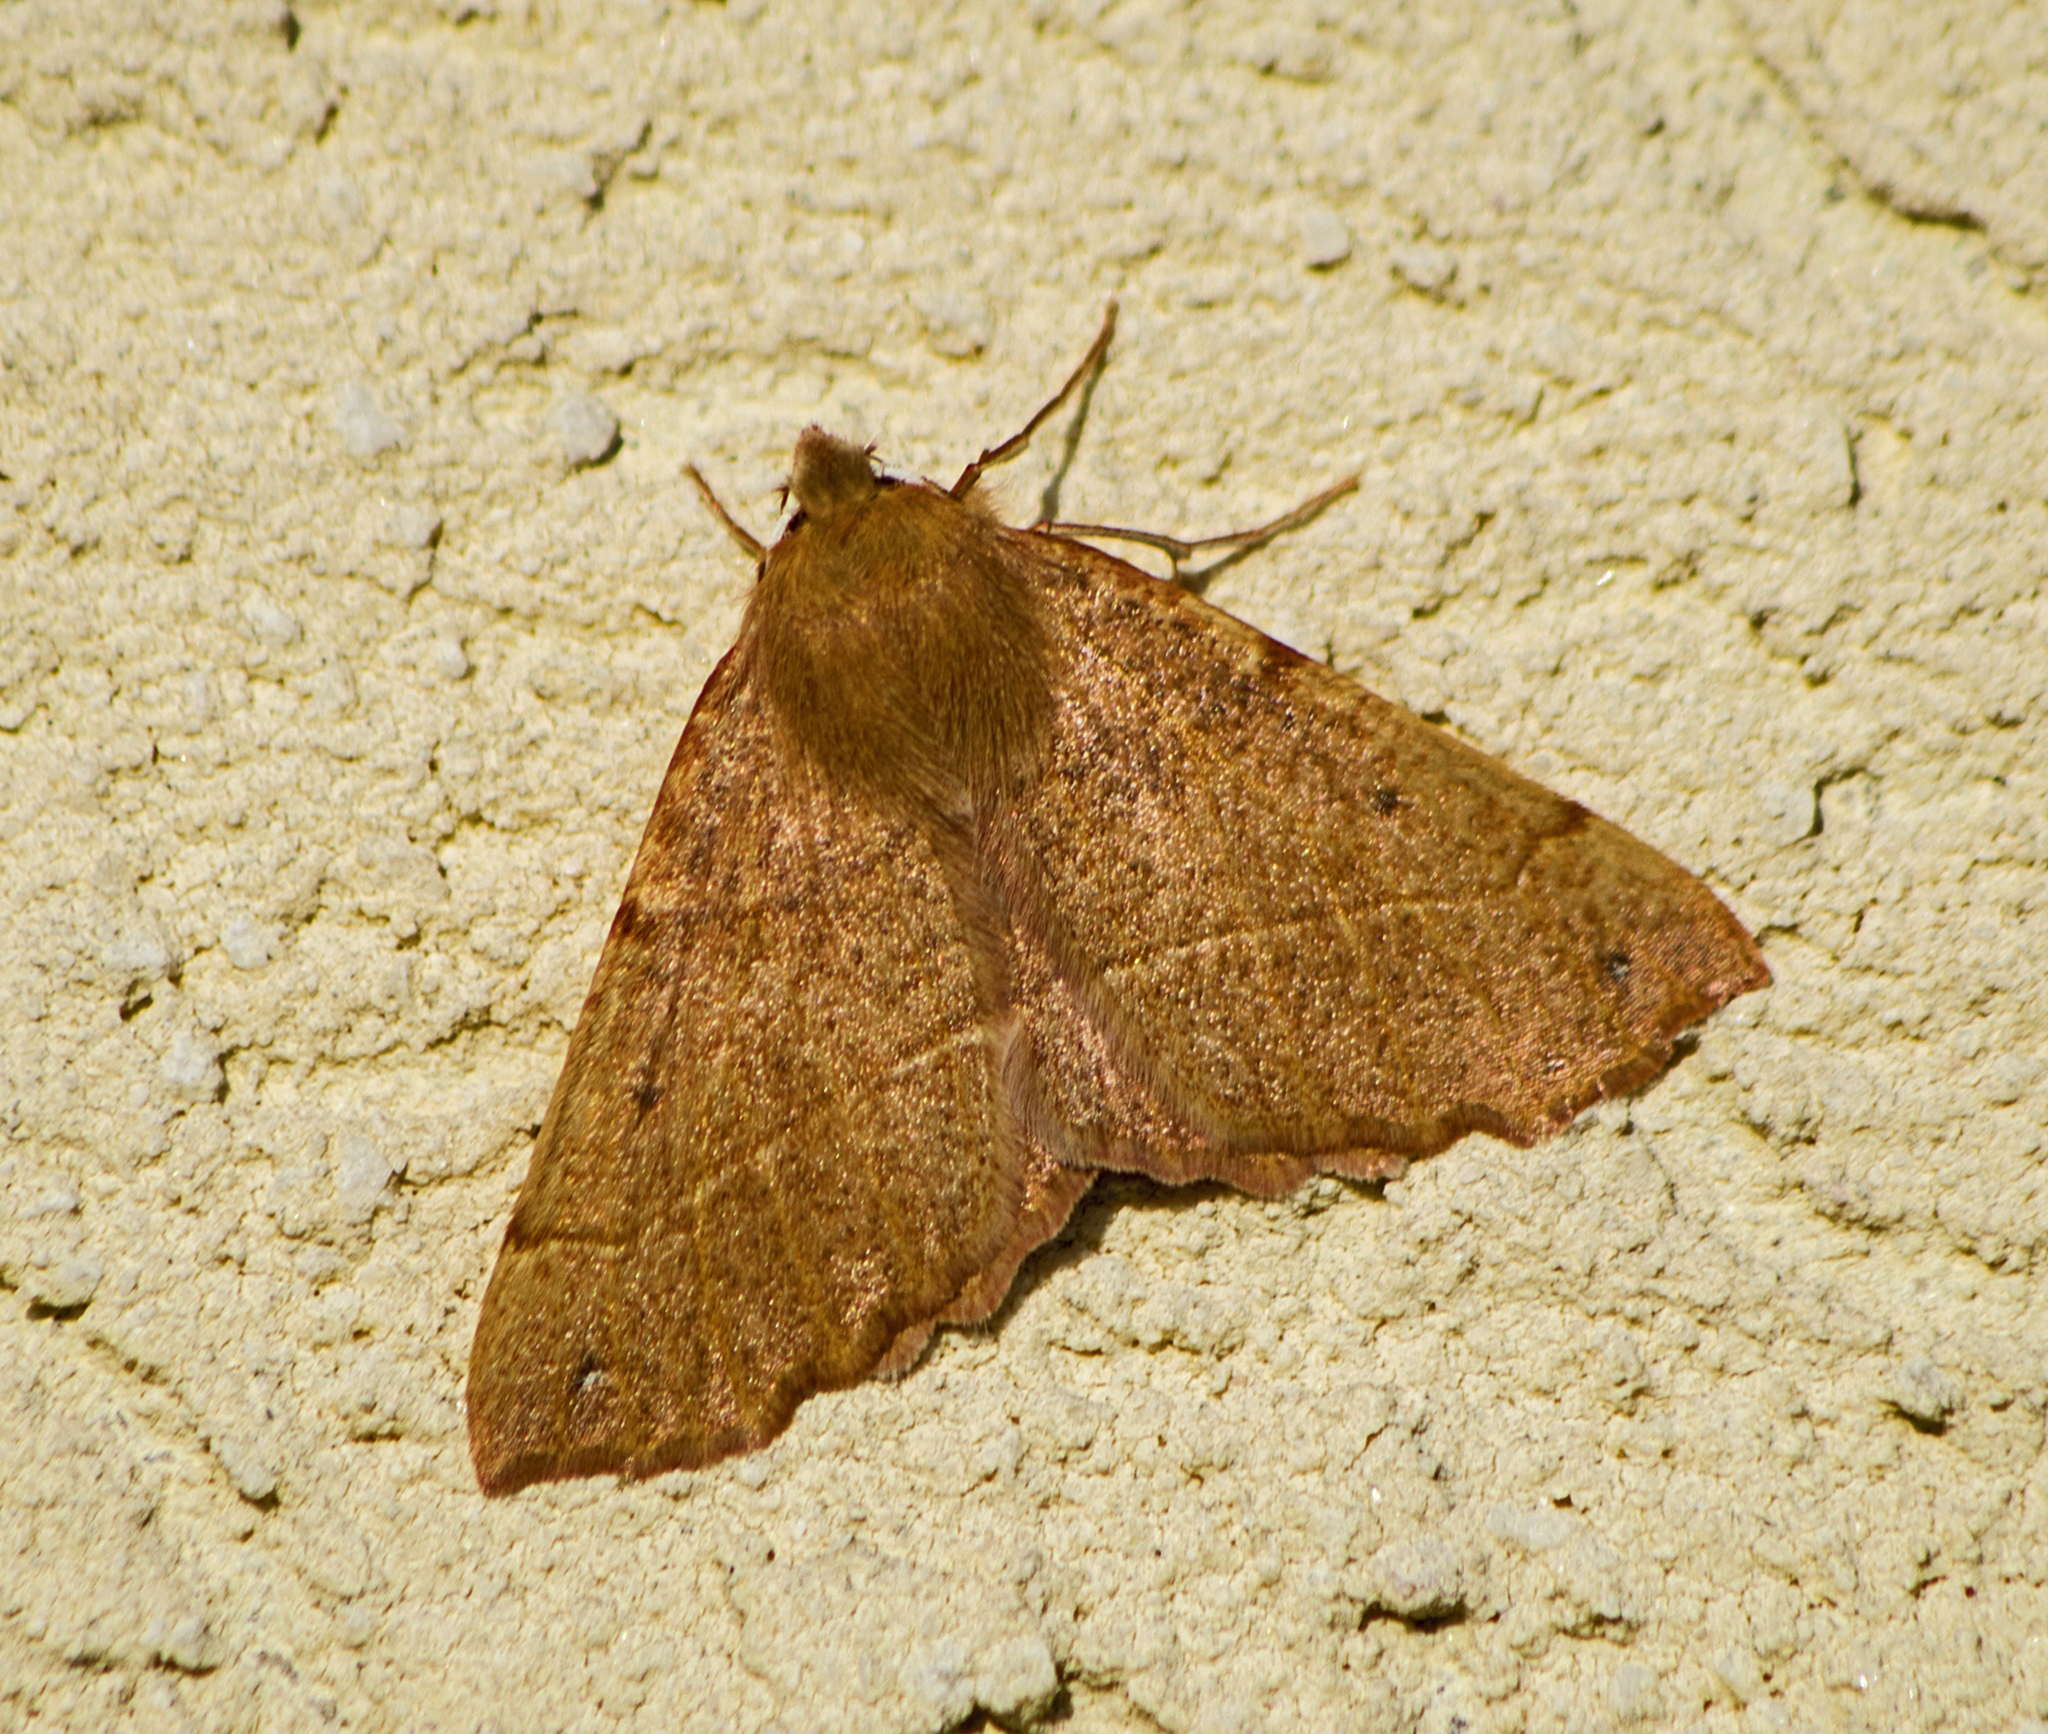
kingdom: Animalia
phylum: Arthropoda
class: Insecta
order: Lepidoptera
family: Geometridae
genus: Colotois
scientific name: Colotois pennaria
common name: Feathered thorn
